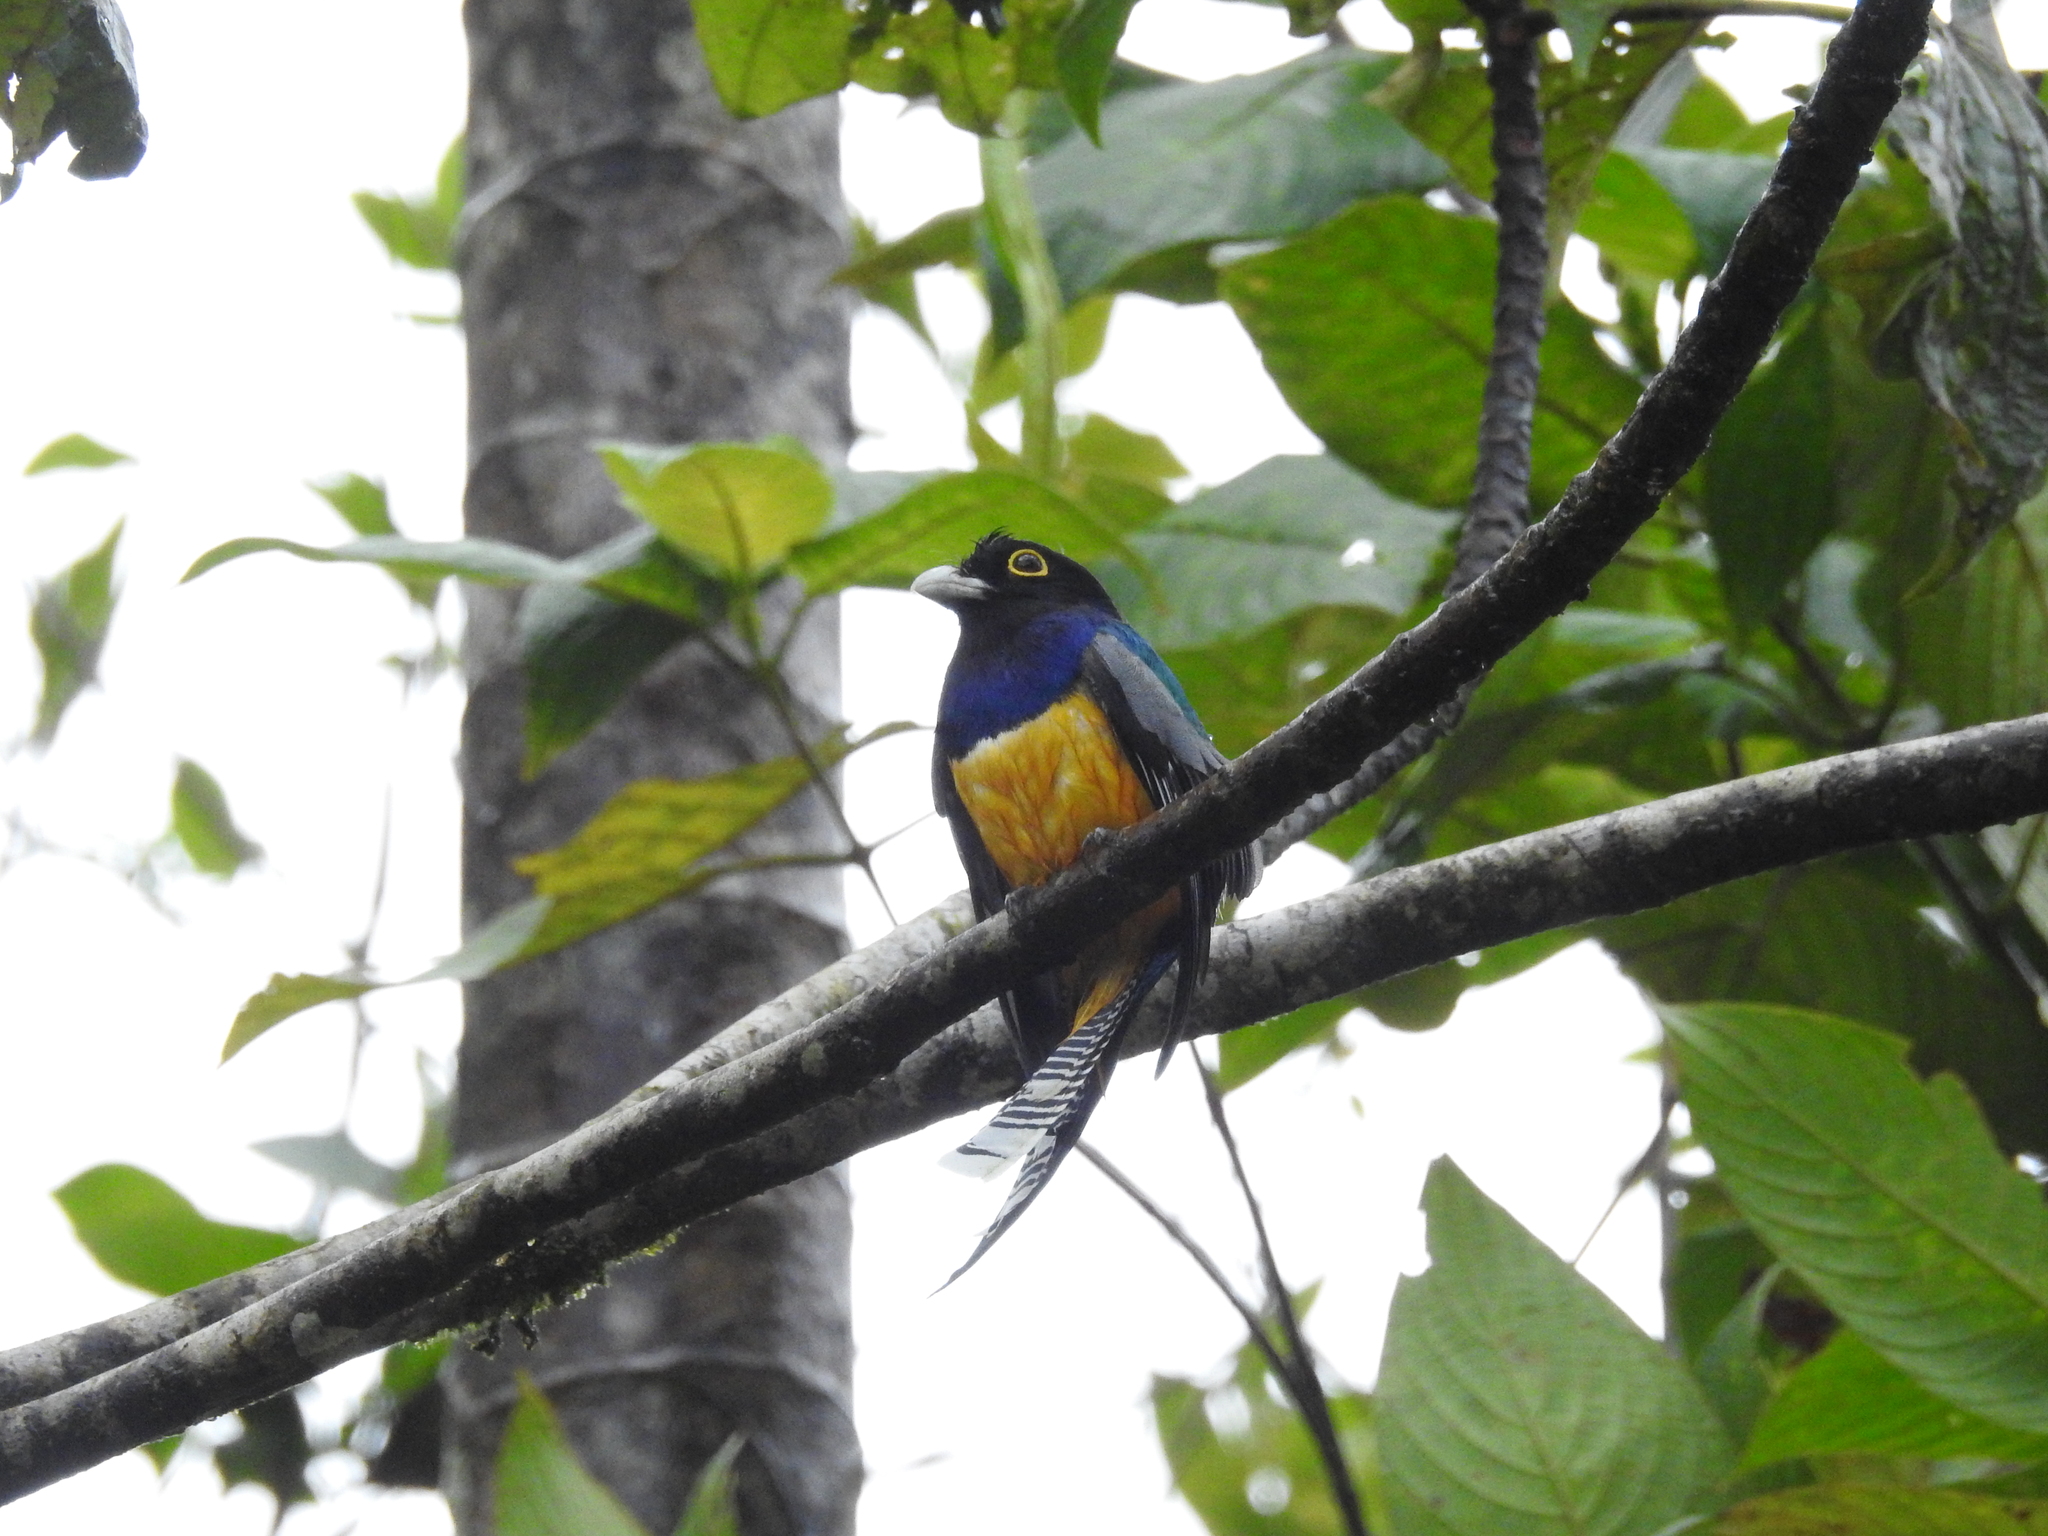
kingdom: Animalia
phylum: Chordata
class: Aves
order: Trogoniformes
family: Trogonidae
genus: Trogon
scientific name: Trogon caligatus
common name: Gartered trogon
